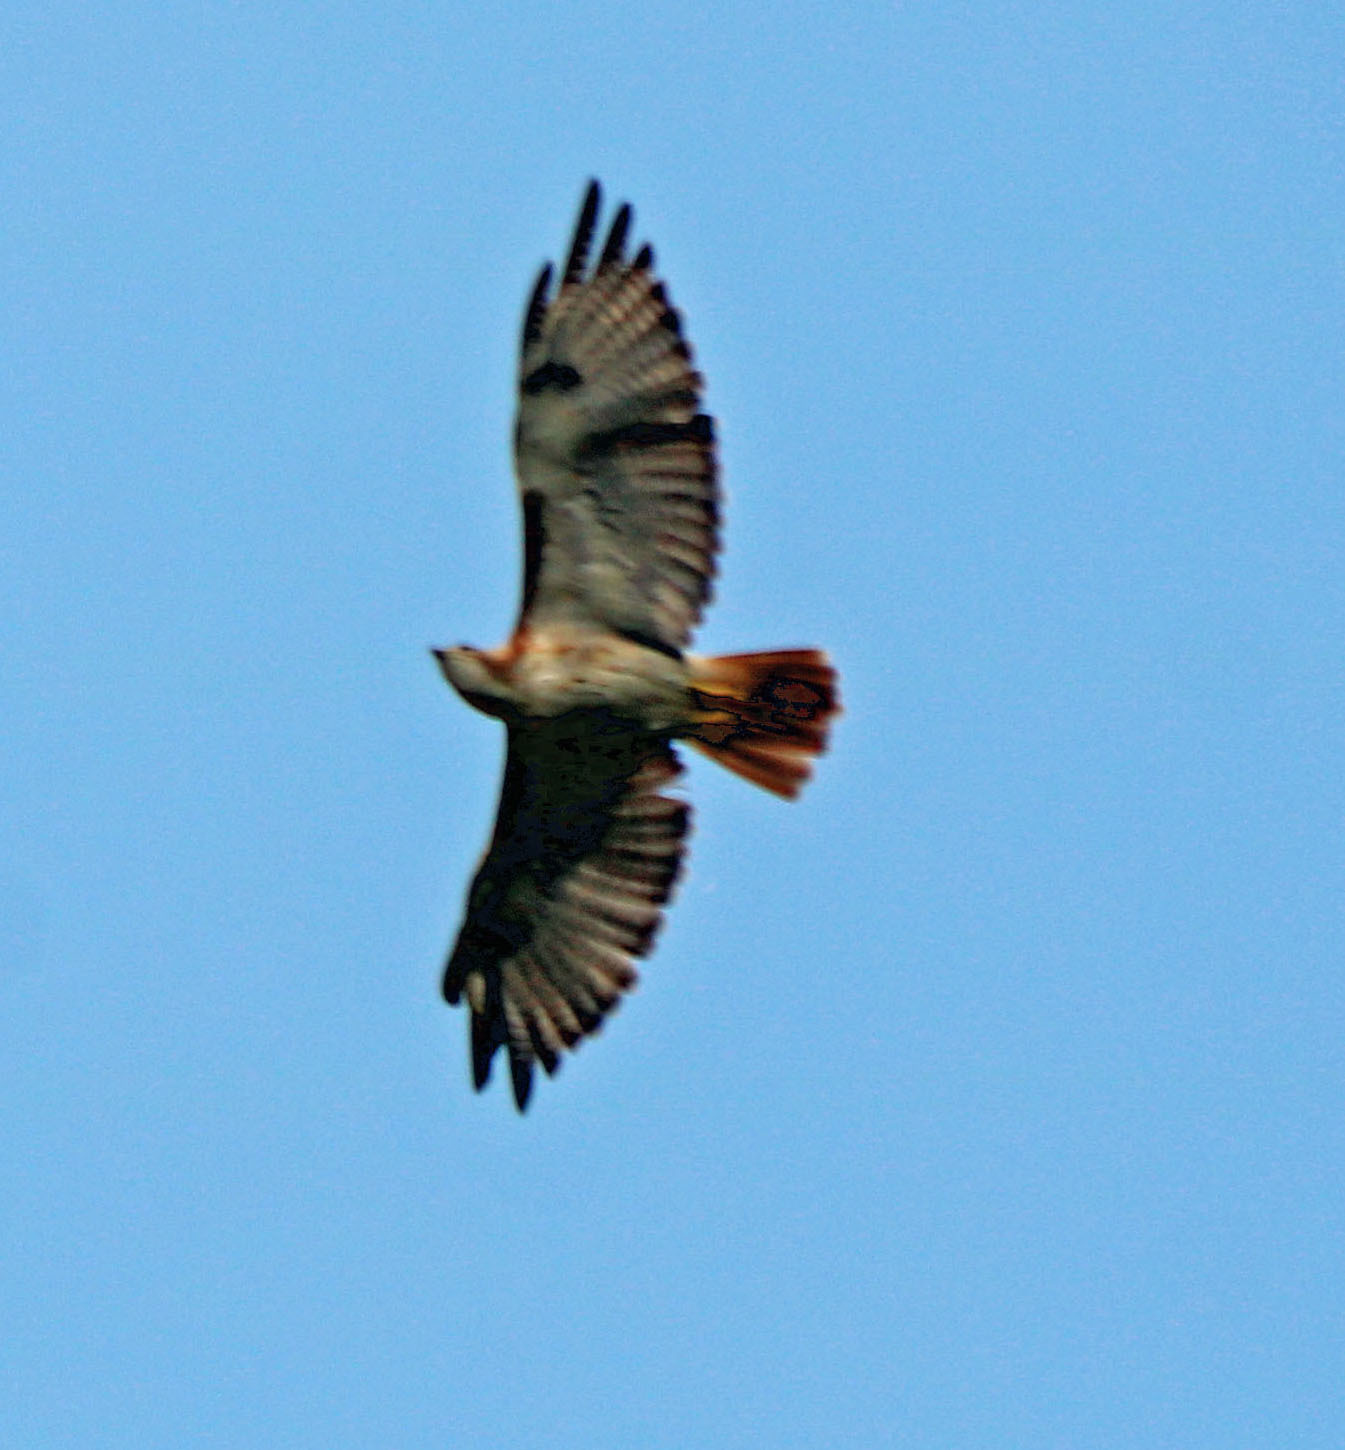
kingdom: Animalia
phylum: Chordata
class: Aves
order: Accipitriformes
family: Accipitridae
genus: Buteo
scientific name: Buteo jamaicensis
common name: Red-tailed hawk
